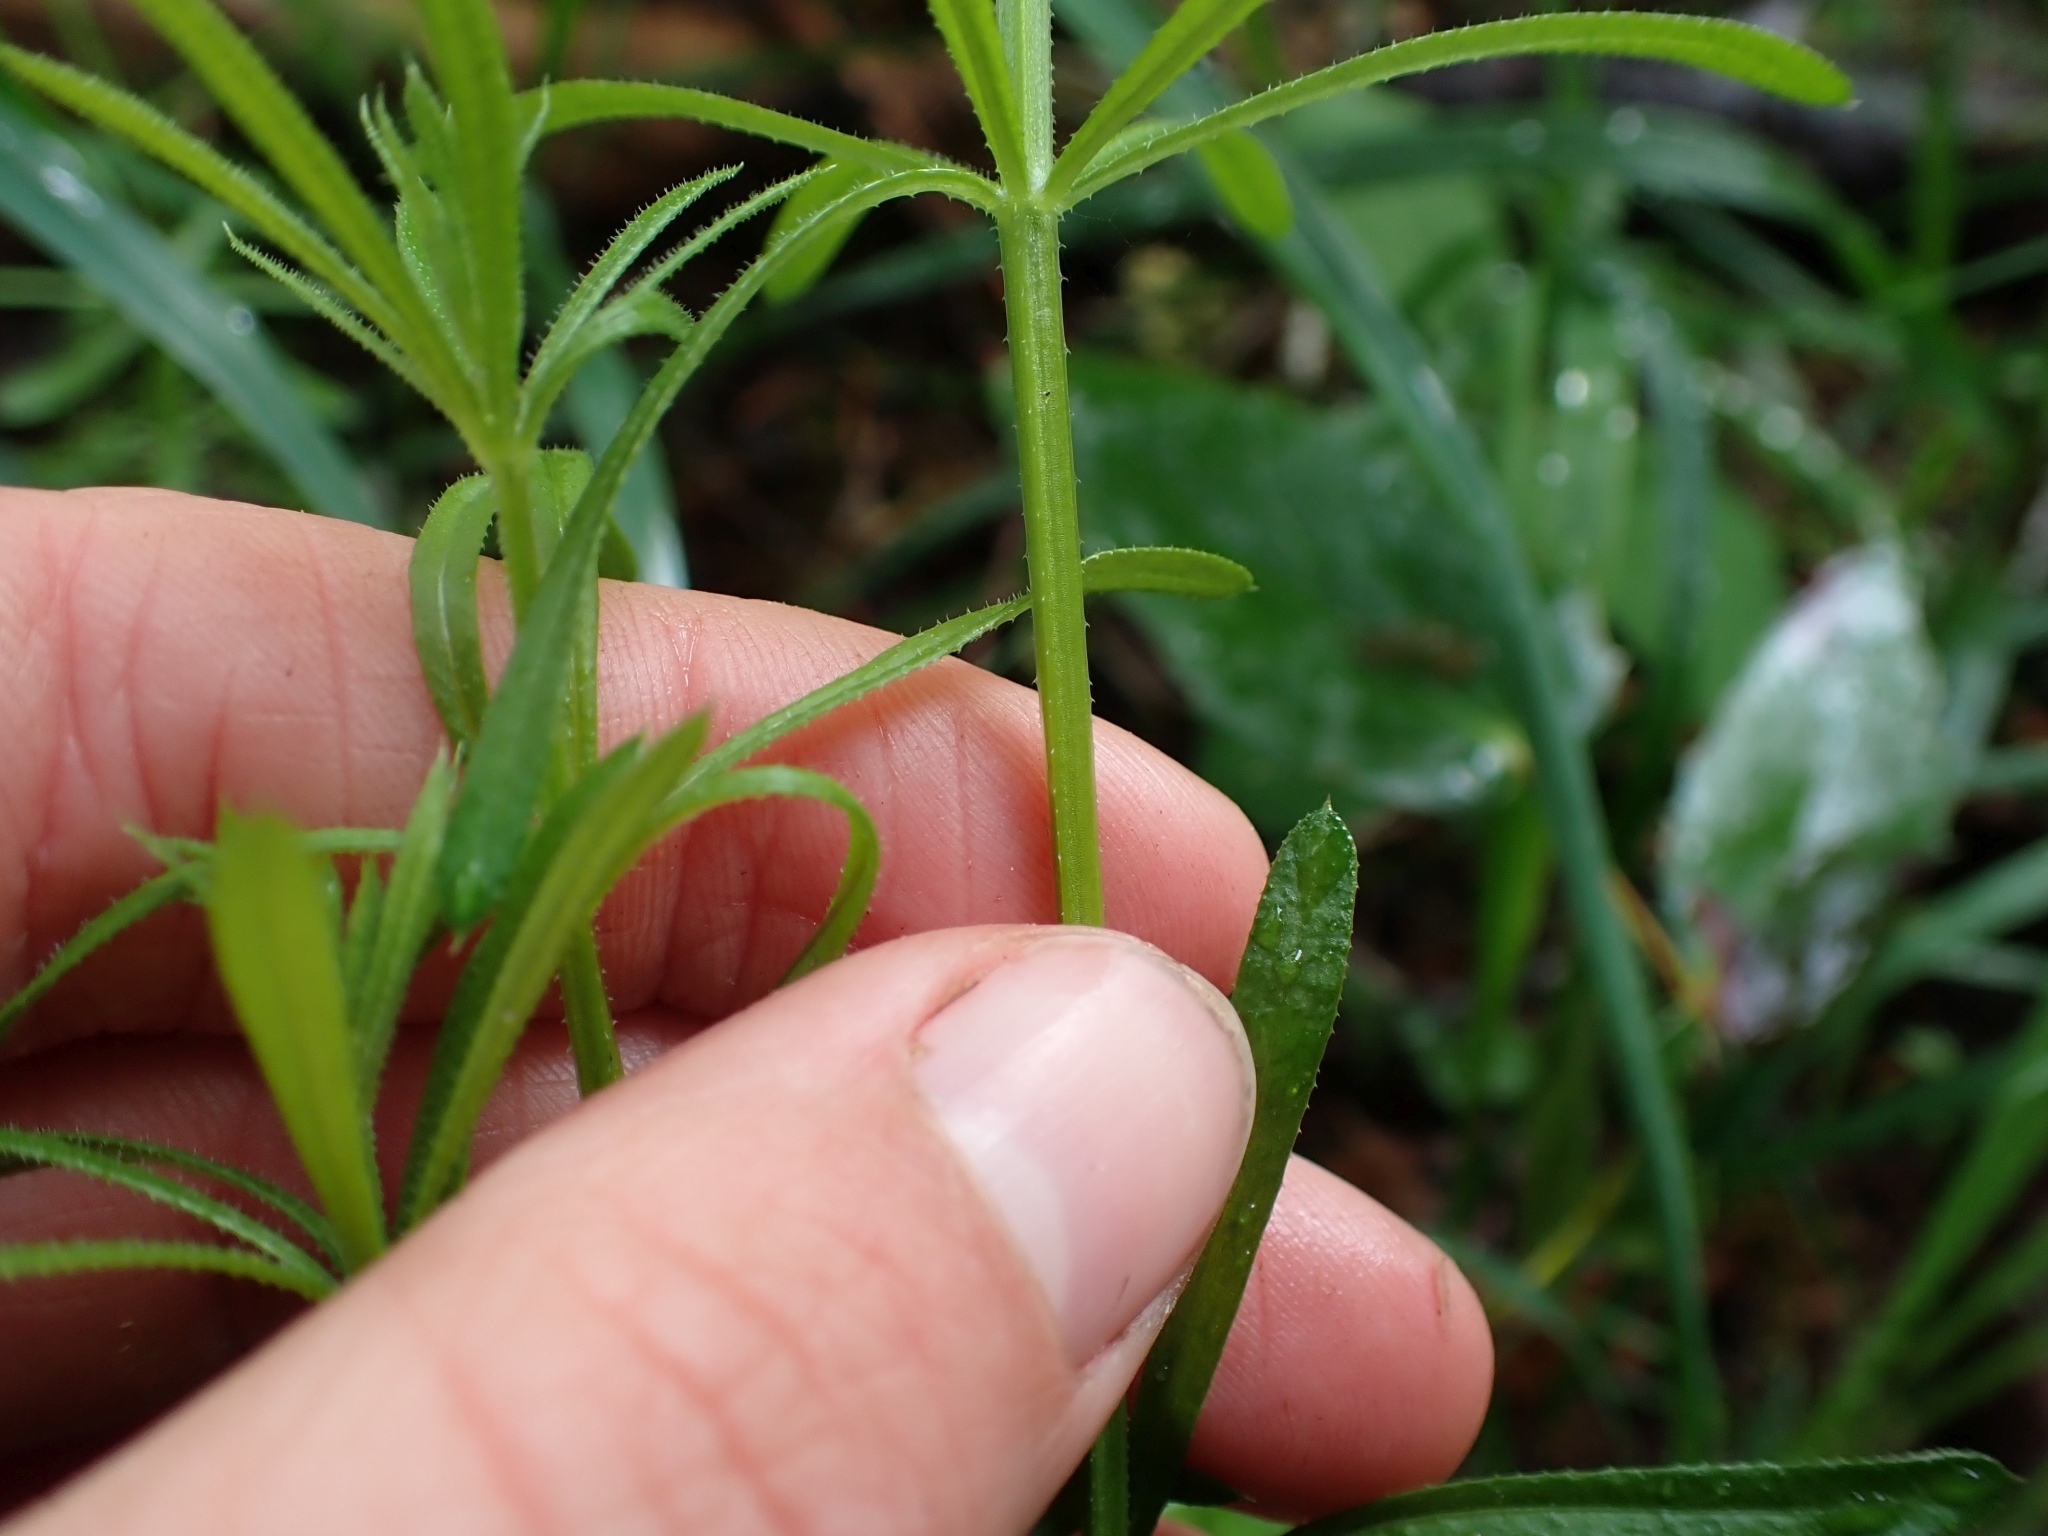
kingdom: Plantae
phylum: Tracheophyta
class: Magnoliopsida
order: Gentianales
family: Rubiaceae
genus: Galium
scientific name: Galium aparine
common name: Cleavers
